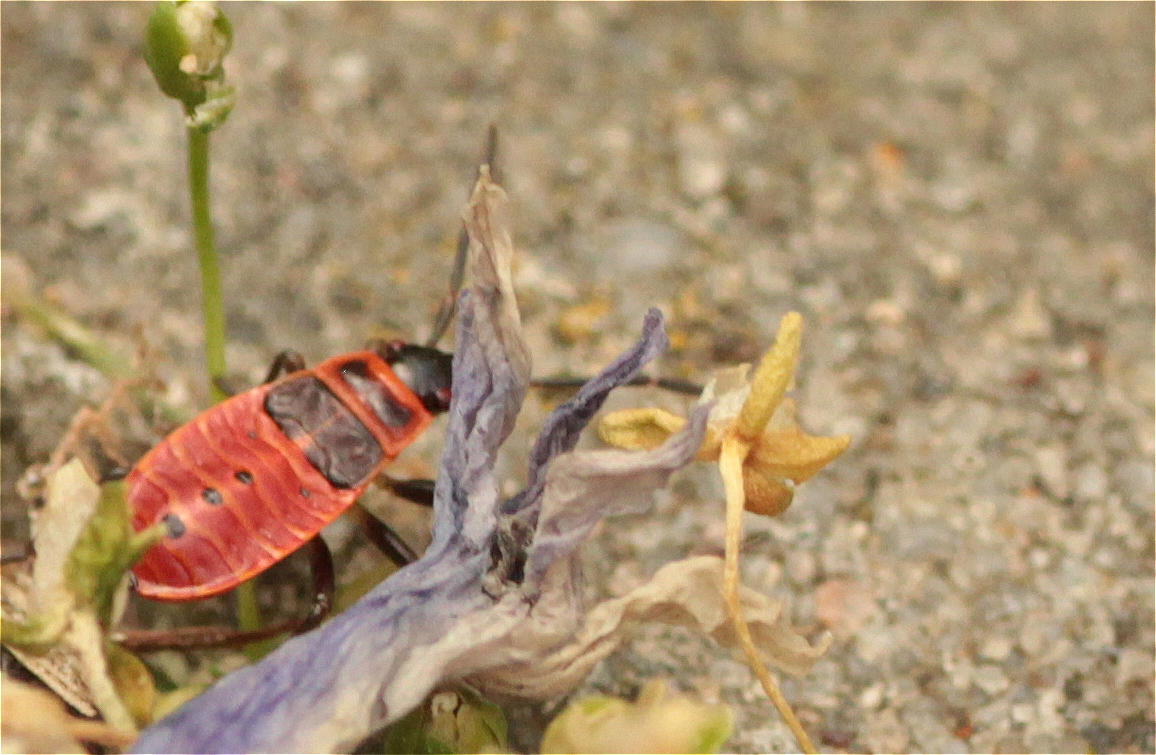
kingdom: Animalia
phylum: Arthropoda
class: Insecta
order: Hemiptera
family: Pyrrhocoridae
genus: Pyrrhocoris
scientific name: Pyrrhocoris apterus
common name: Firebug
